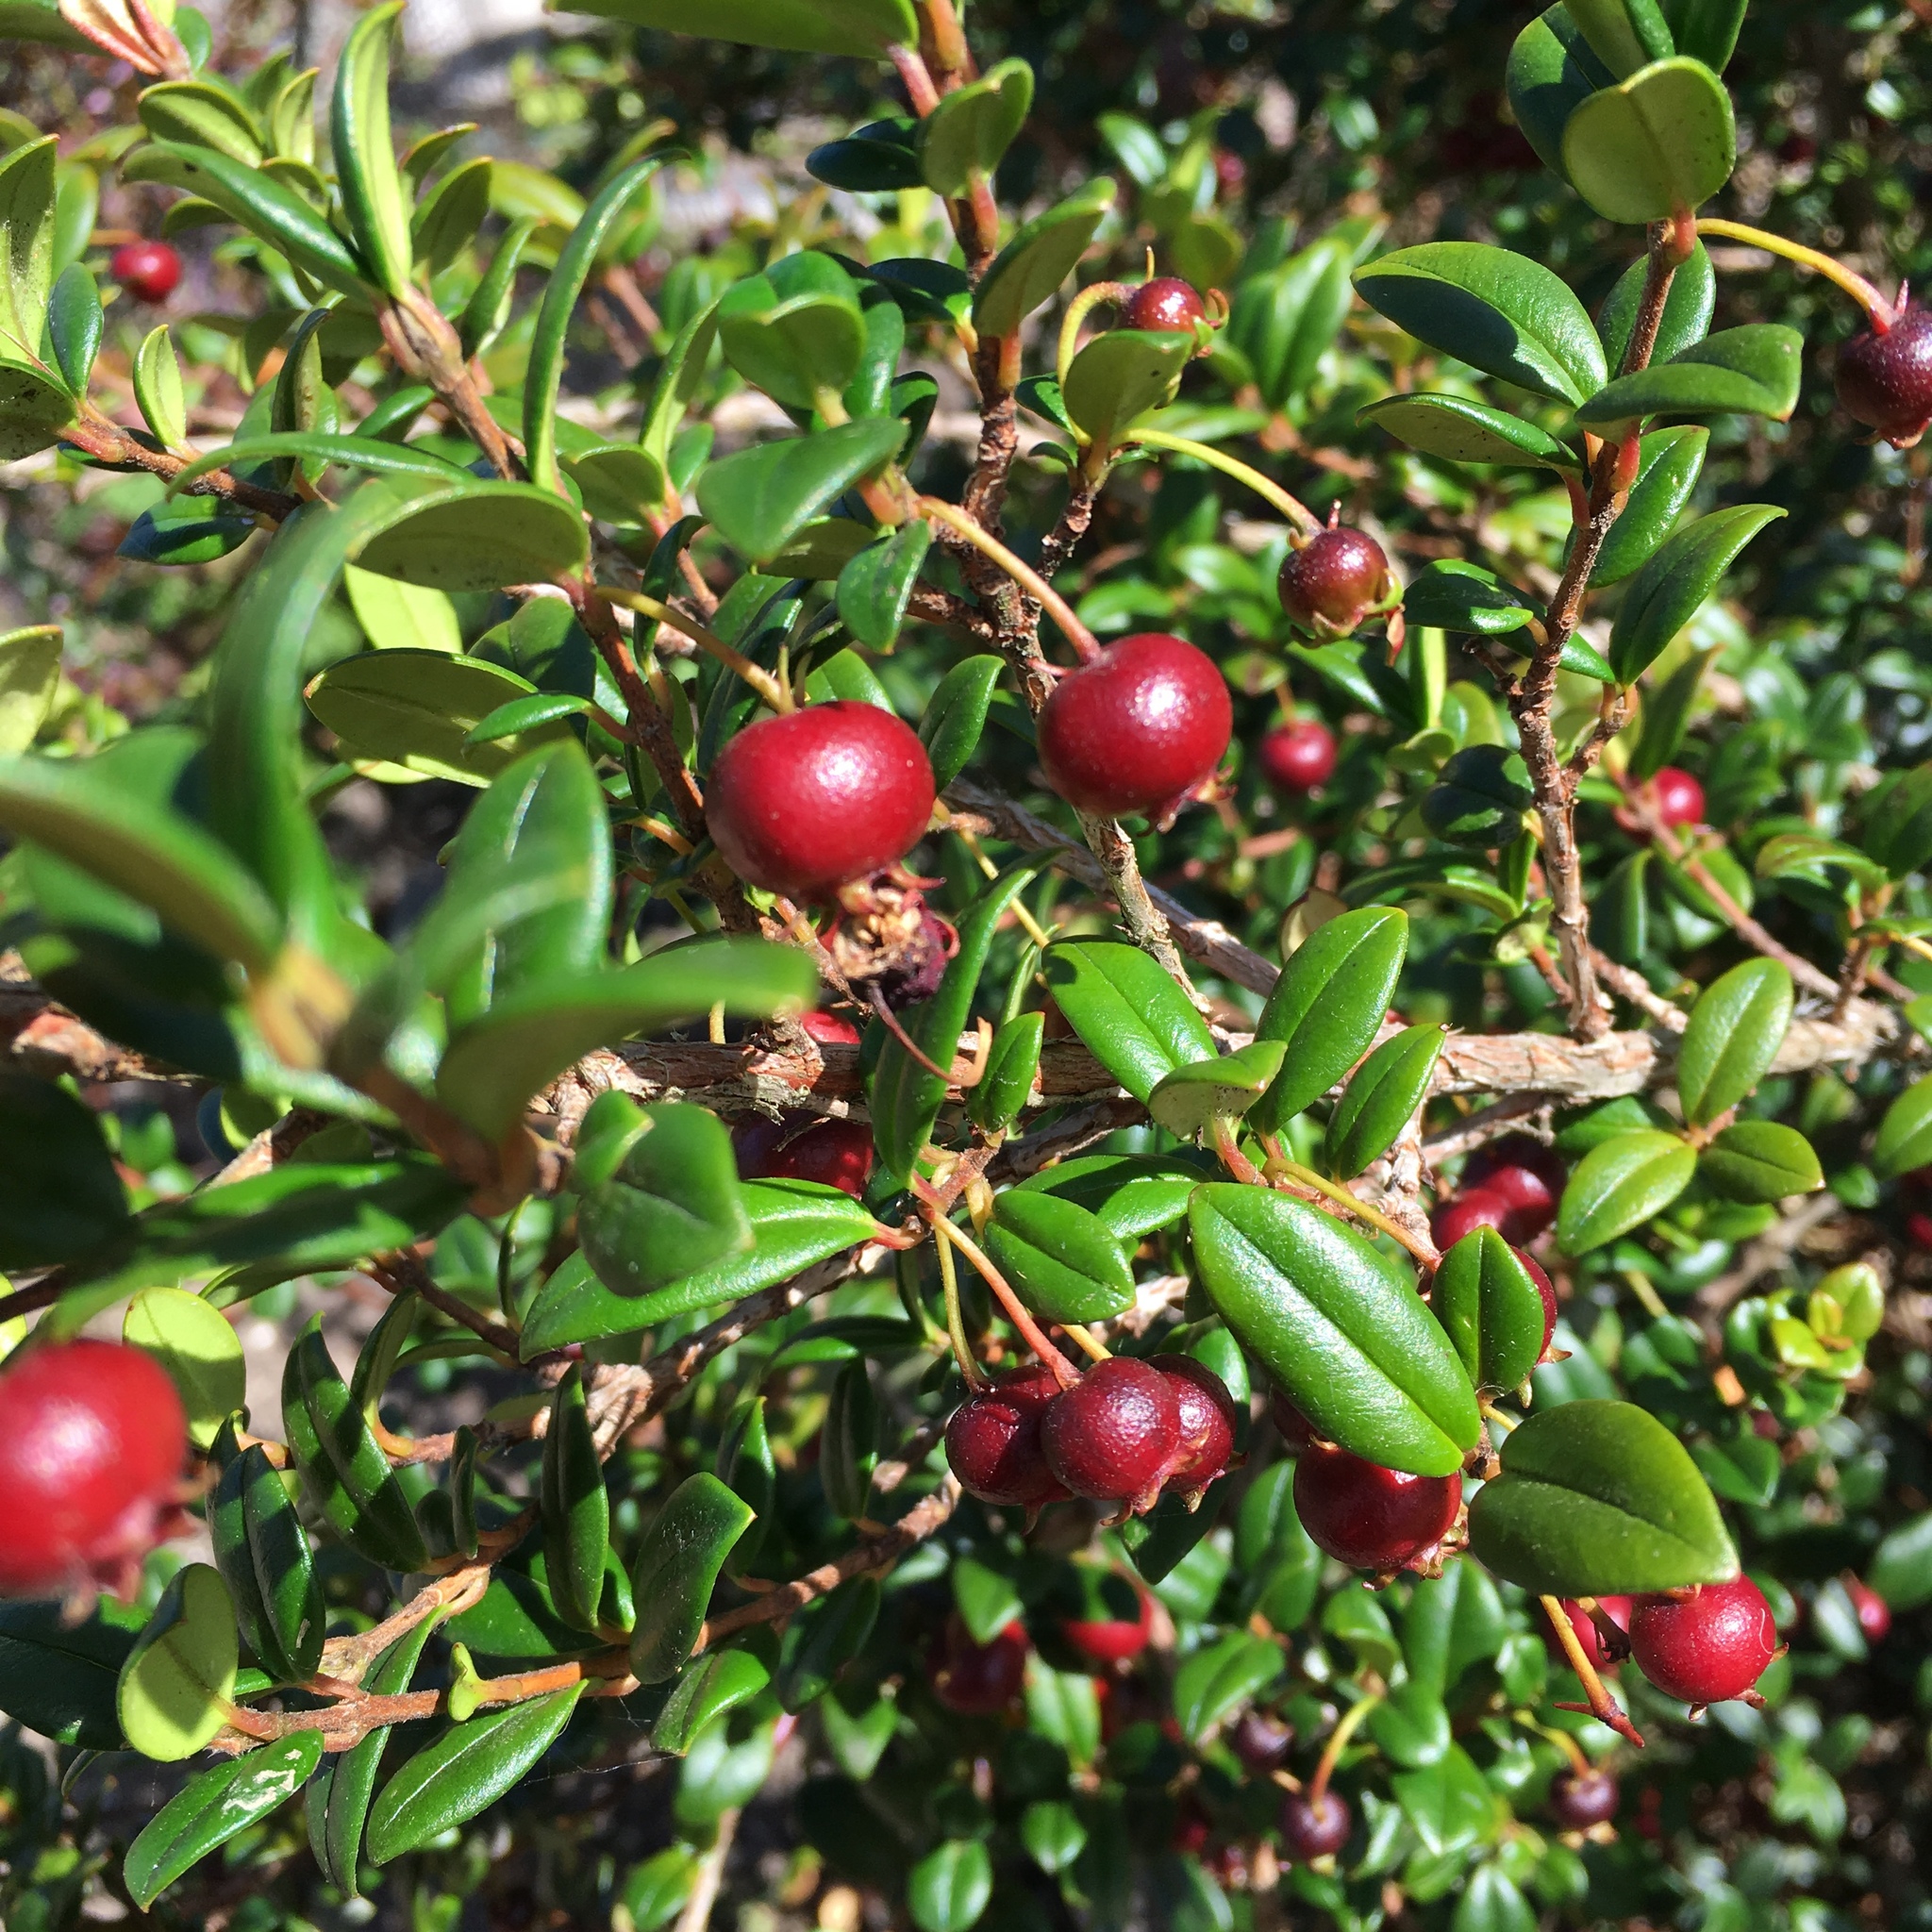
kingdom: Plantae
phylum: Tracheophyta
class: Magnoliopsida
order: Myrtales
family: Myrtaceae
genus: Ugni
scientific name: Ugni molinae
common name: Chilean-guava
